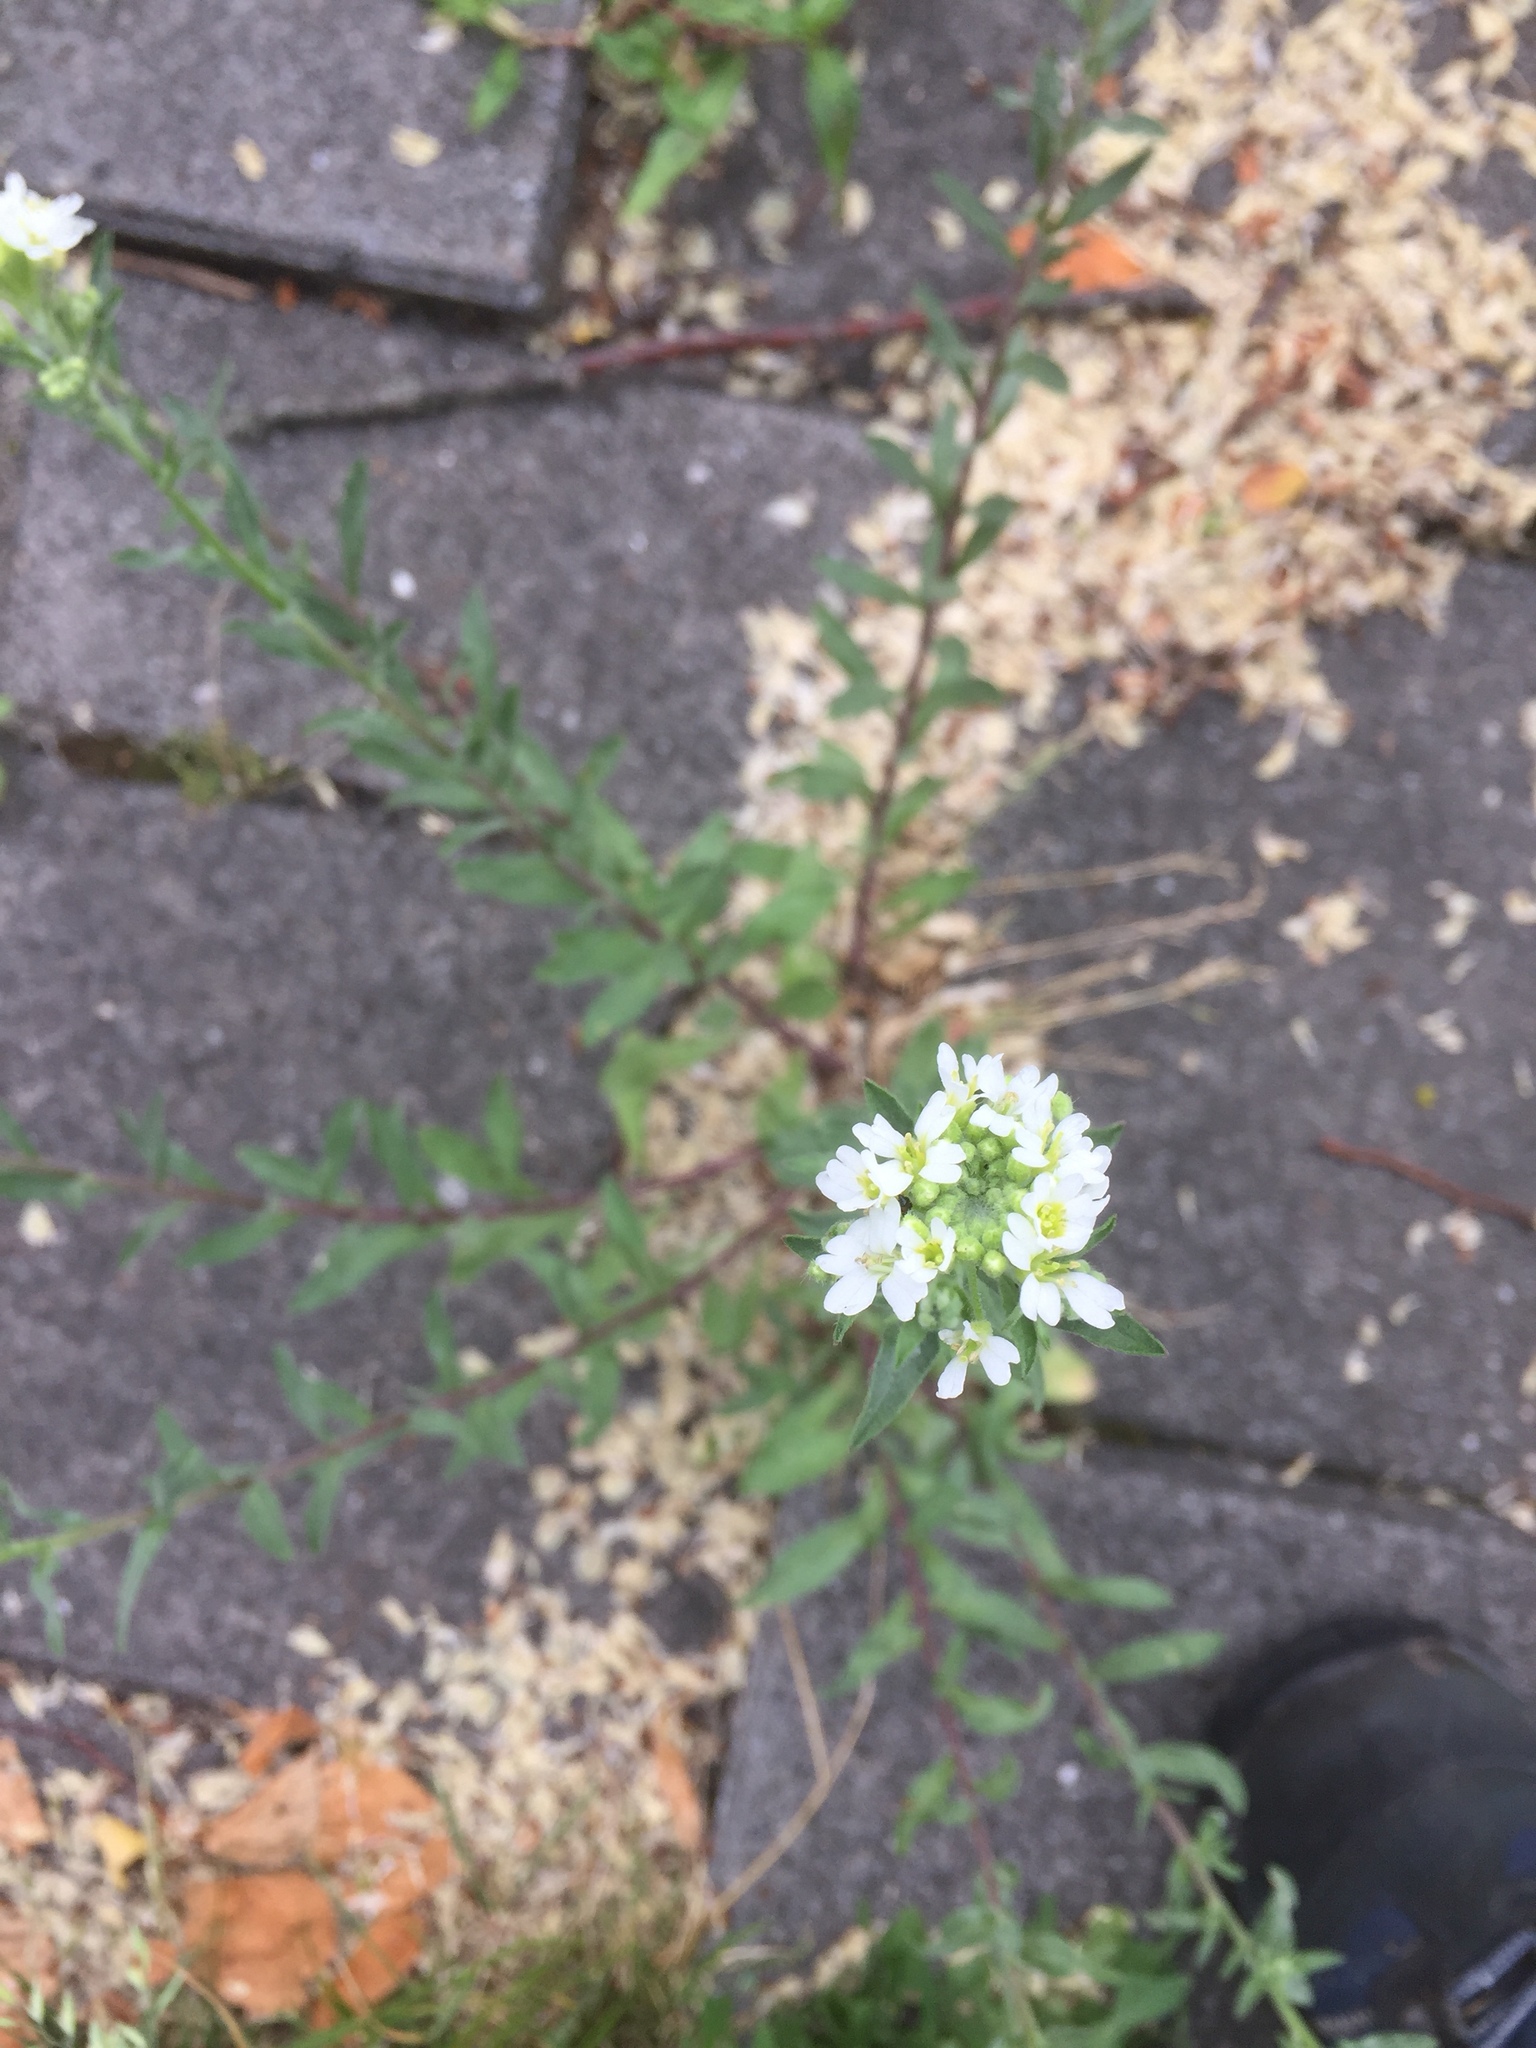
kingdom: Plantae
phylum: Tracheophyta
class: Magnoliopsida
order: Brassicales
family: Brassicaceae
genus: Berteroa
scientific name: Berteroa incana
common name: Hoary alison
